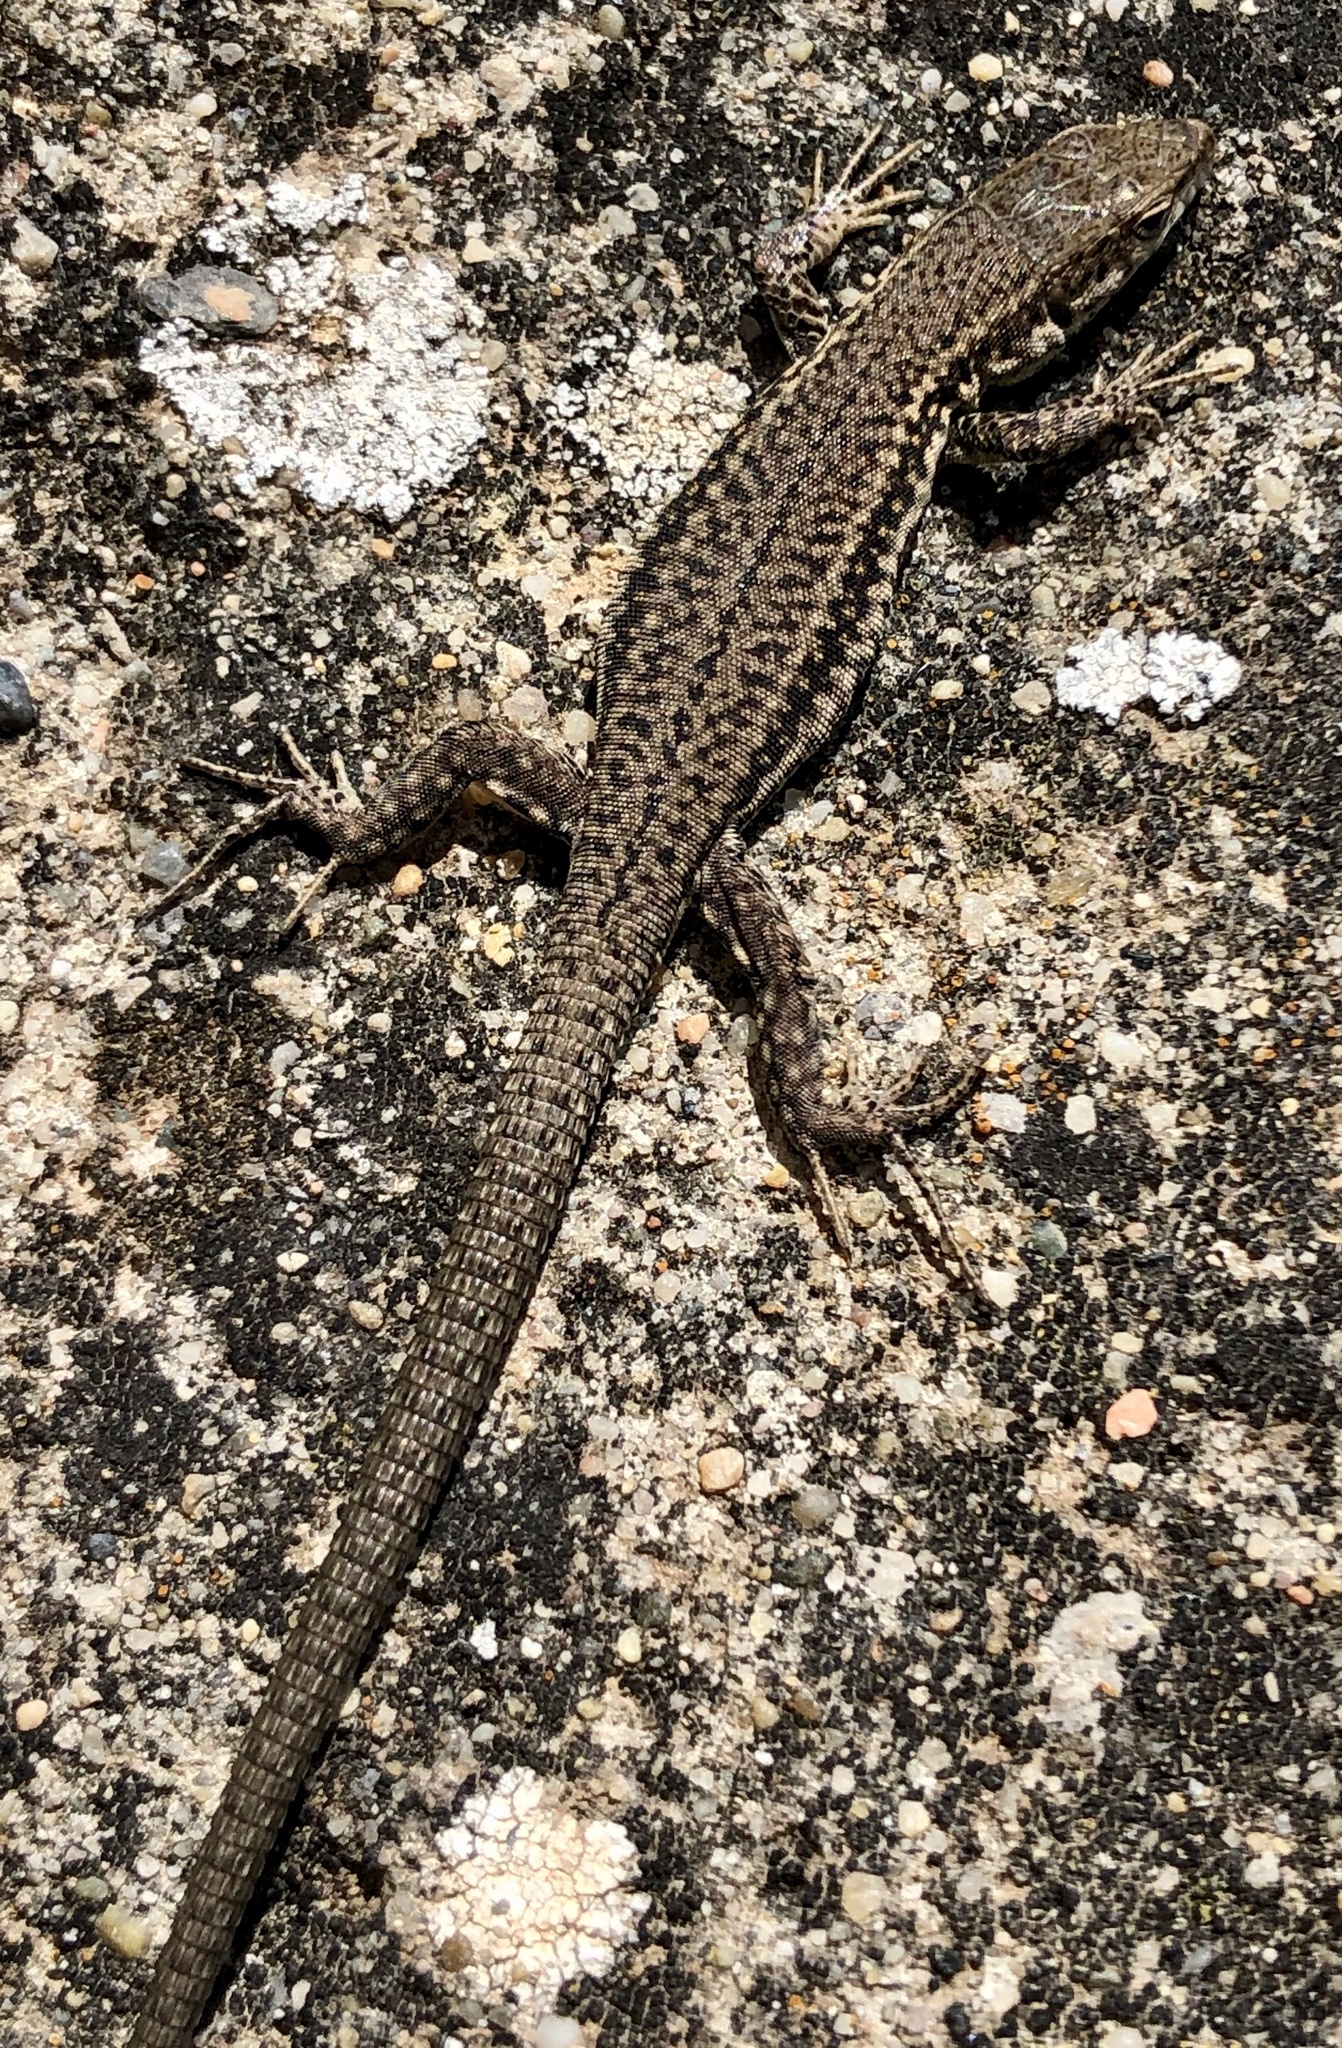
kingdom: Animalia
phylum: Chordata
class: Squamata
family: Lacertidae
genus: Podarcis
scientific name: Podarcis liolepis
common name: Catalonian wall lizard
